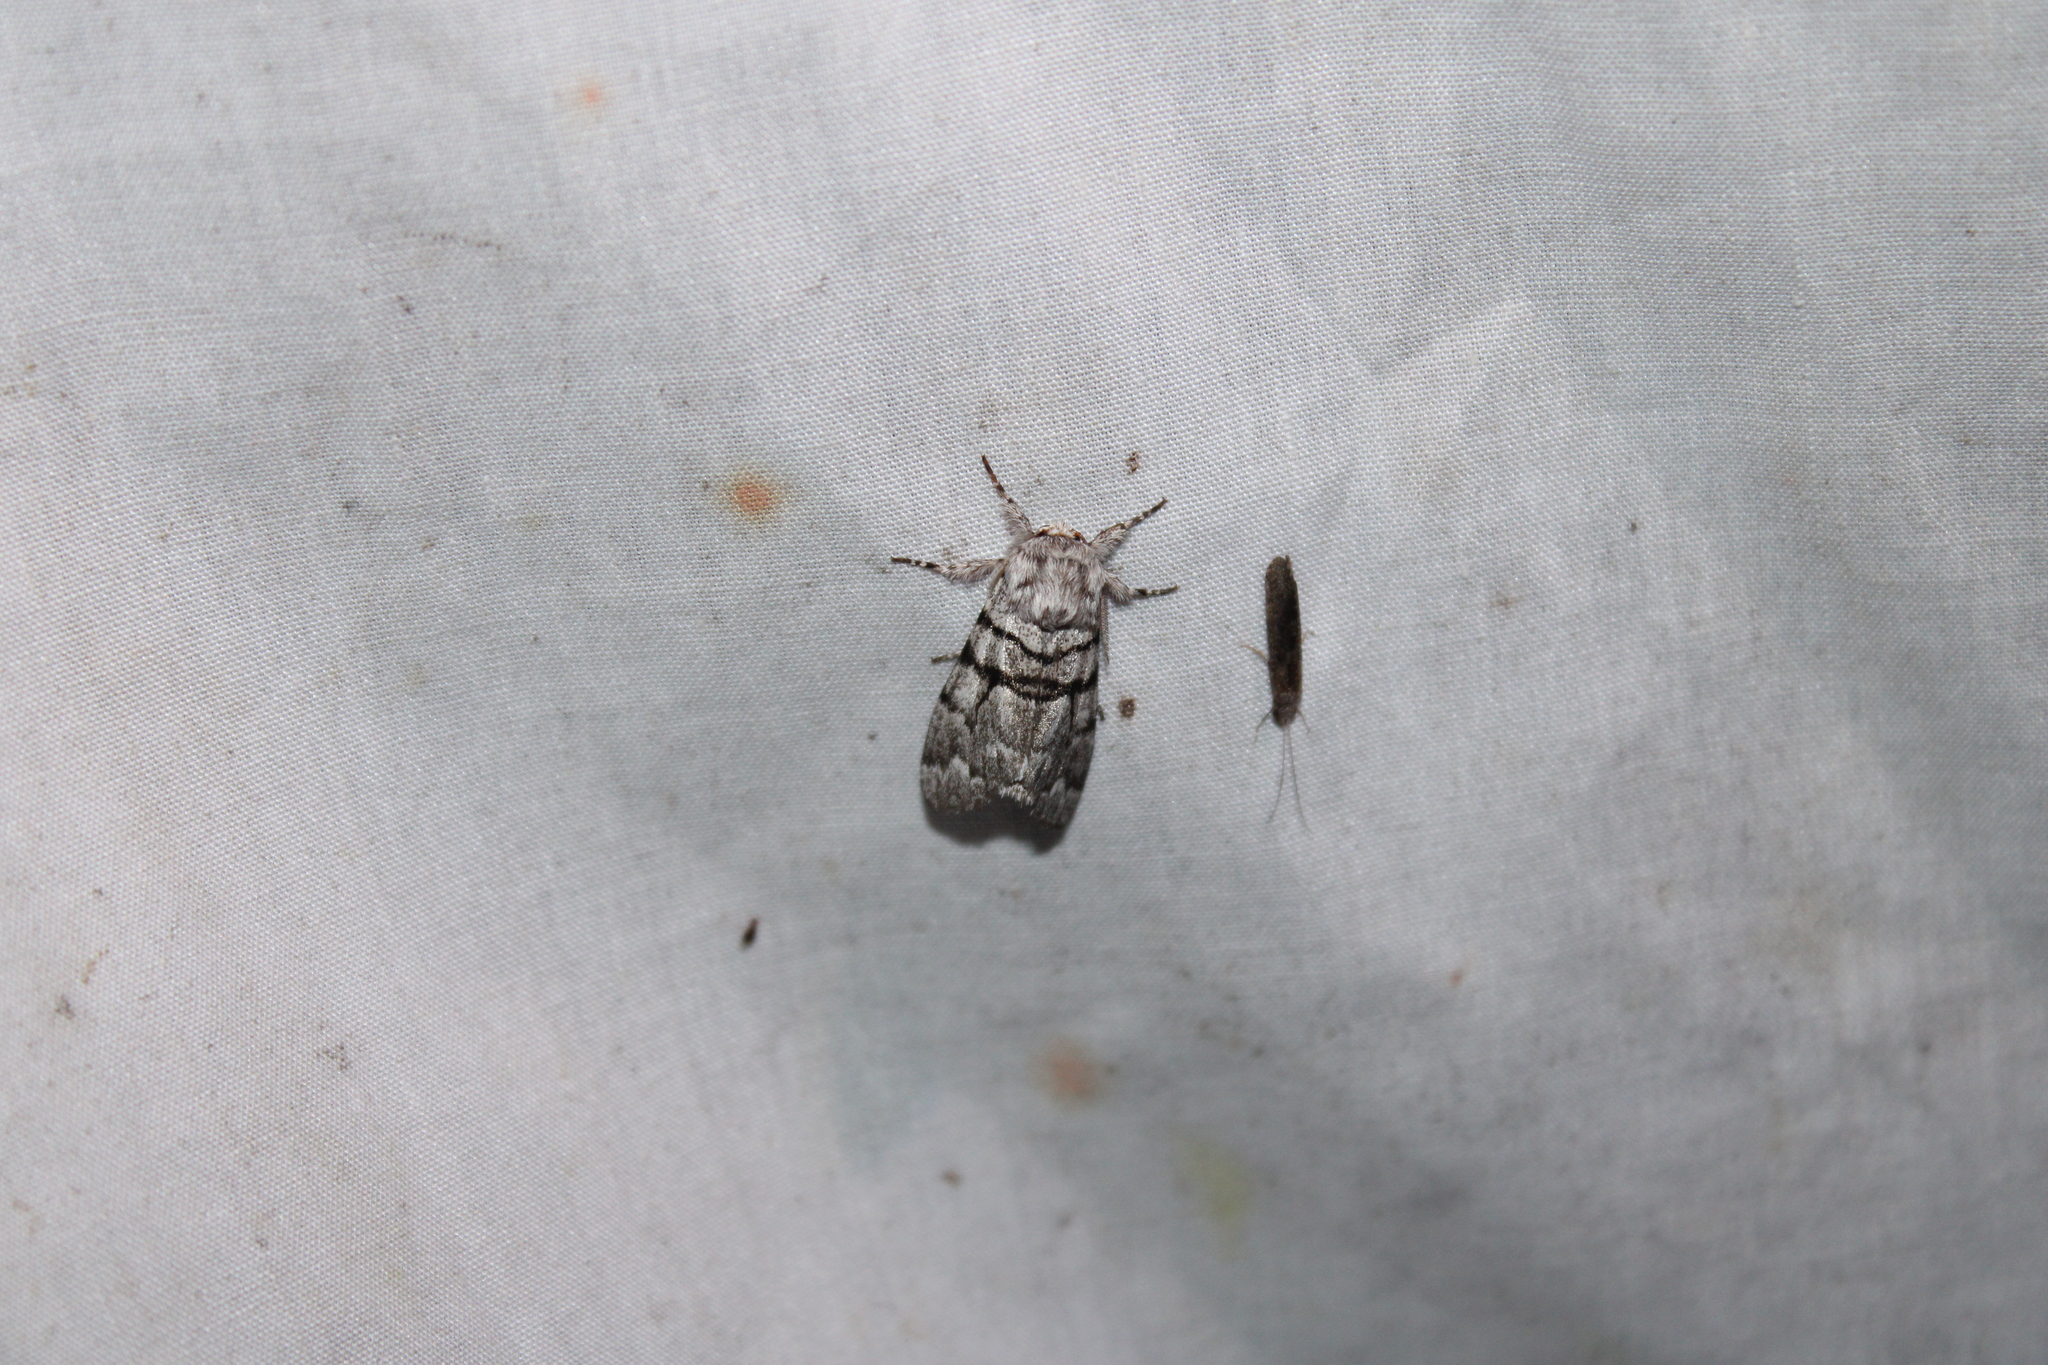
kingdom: Animalia
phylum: Arthropoda
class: Insecta
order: Lepidoptera
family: Noctuidae
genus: Panthea
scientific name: Panthea furcilla
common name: Eastern panthea moth
